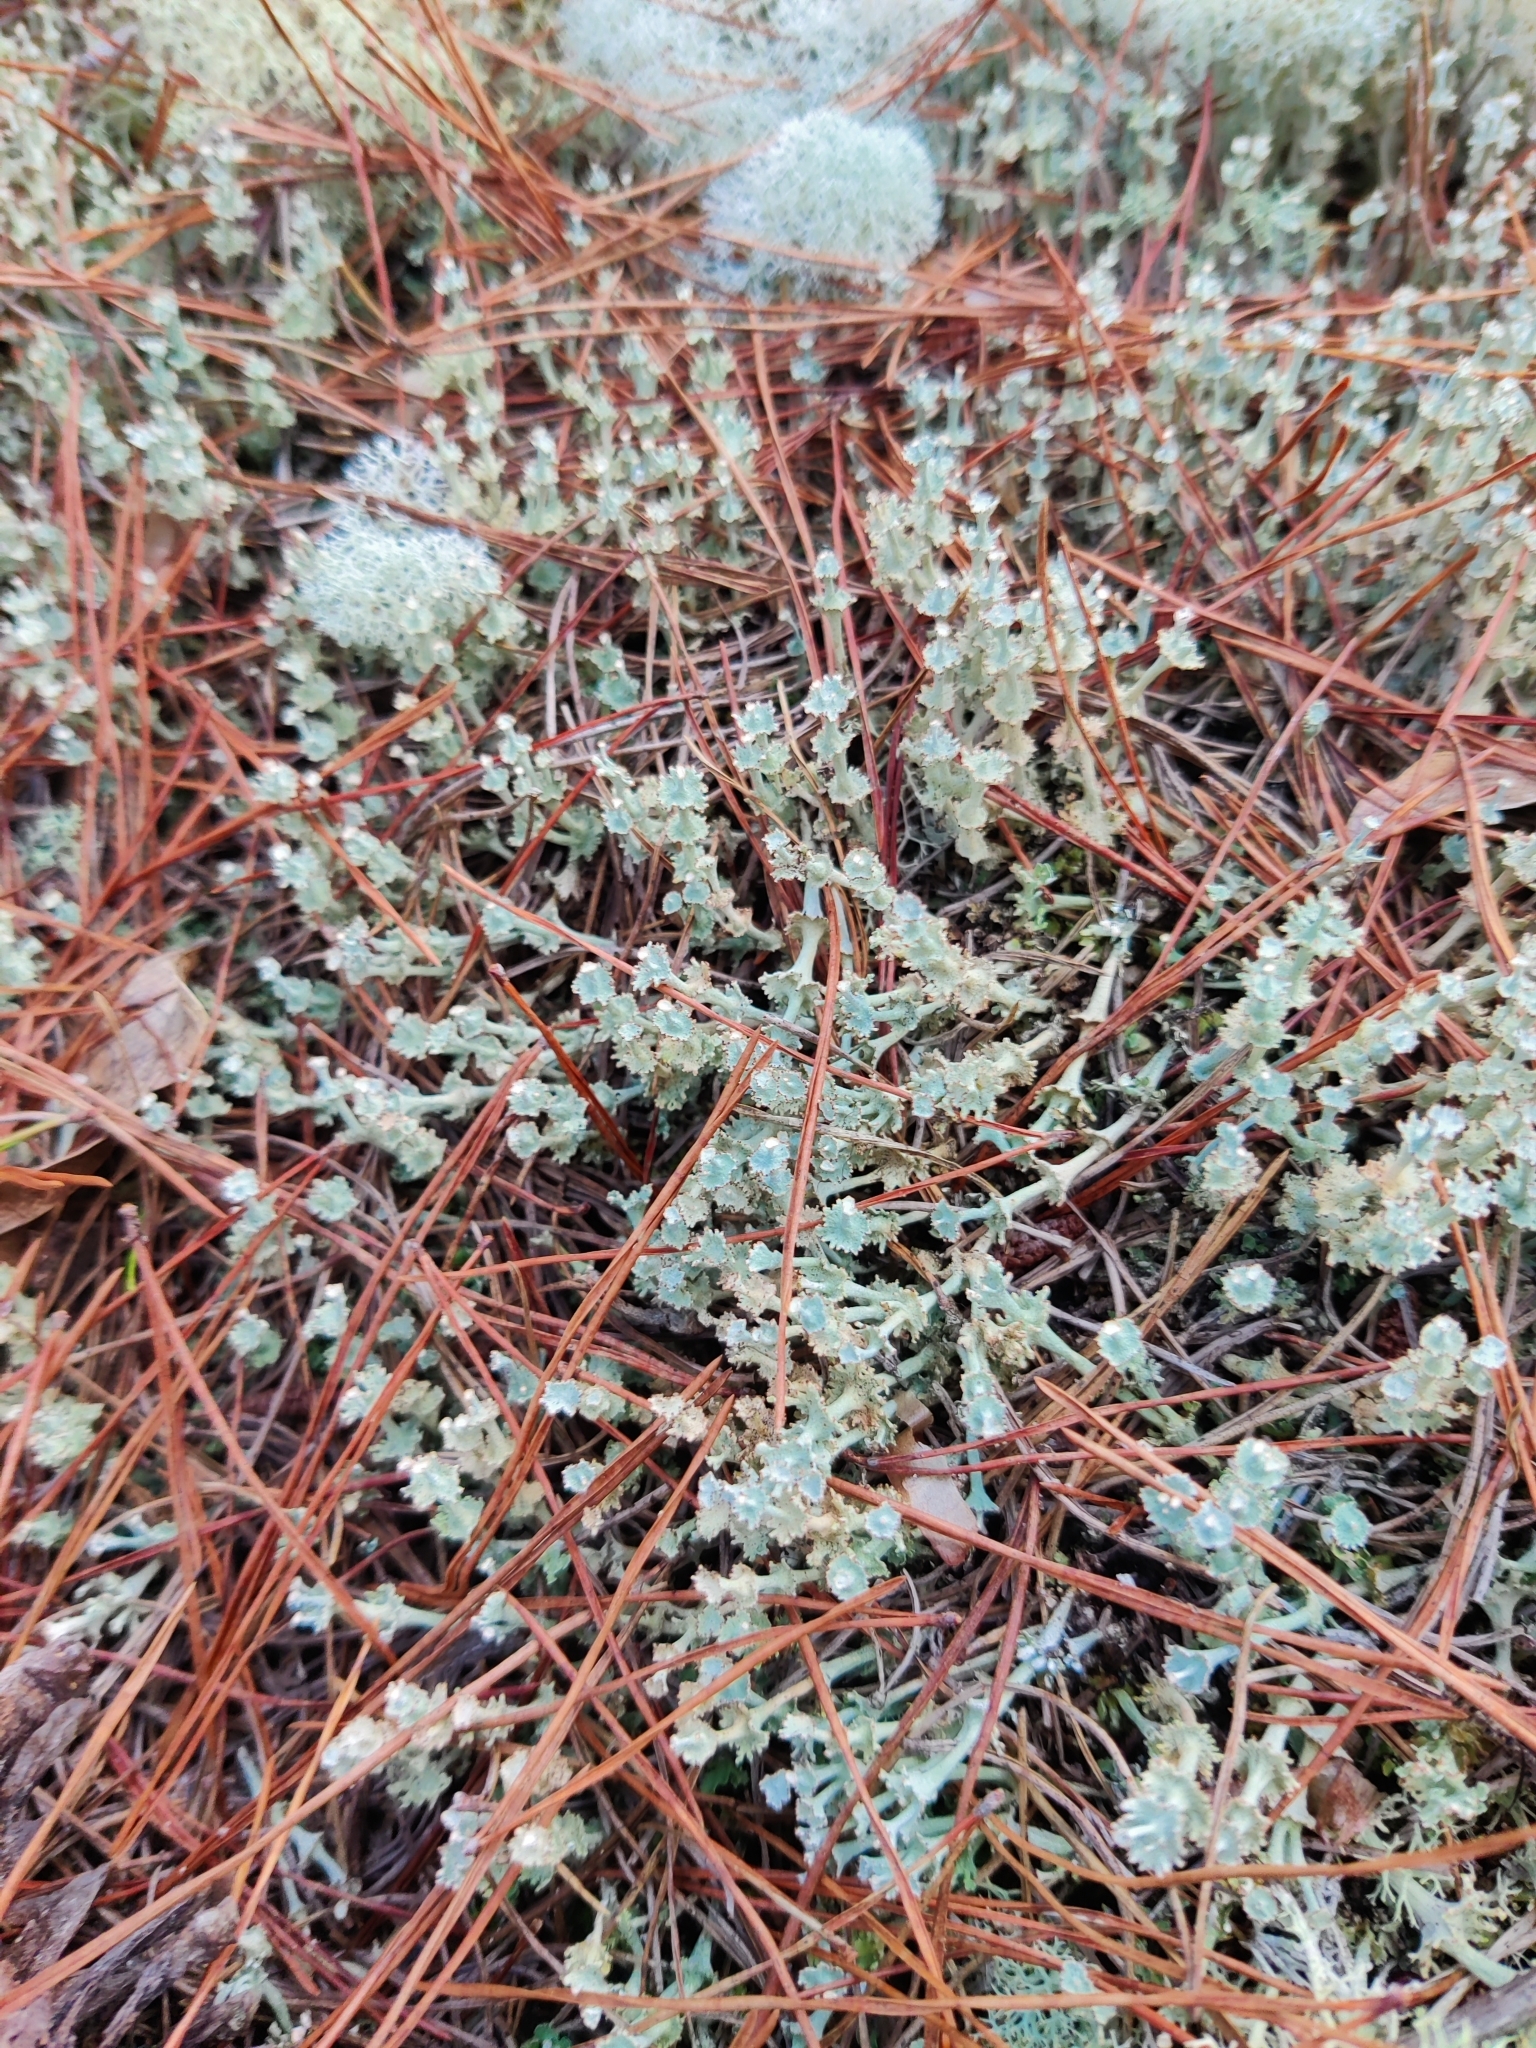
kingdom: Fungi
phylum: Ascomycota
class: Lecanoromycetes
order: Lecanorales
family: Cladoniaceae
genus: Cladonia
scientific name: Cladonia rappii
